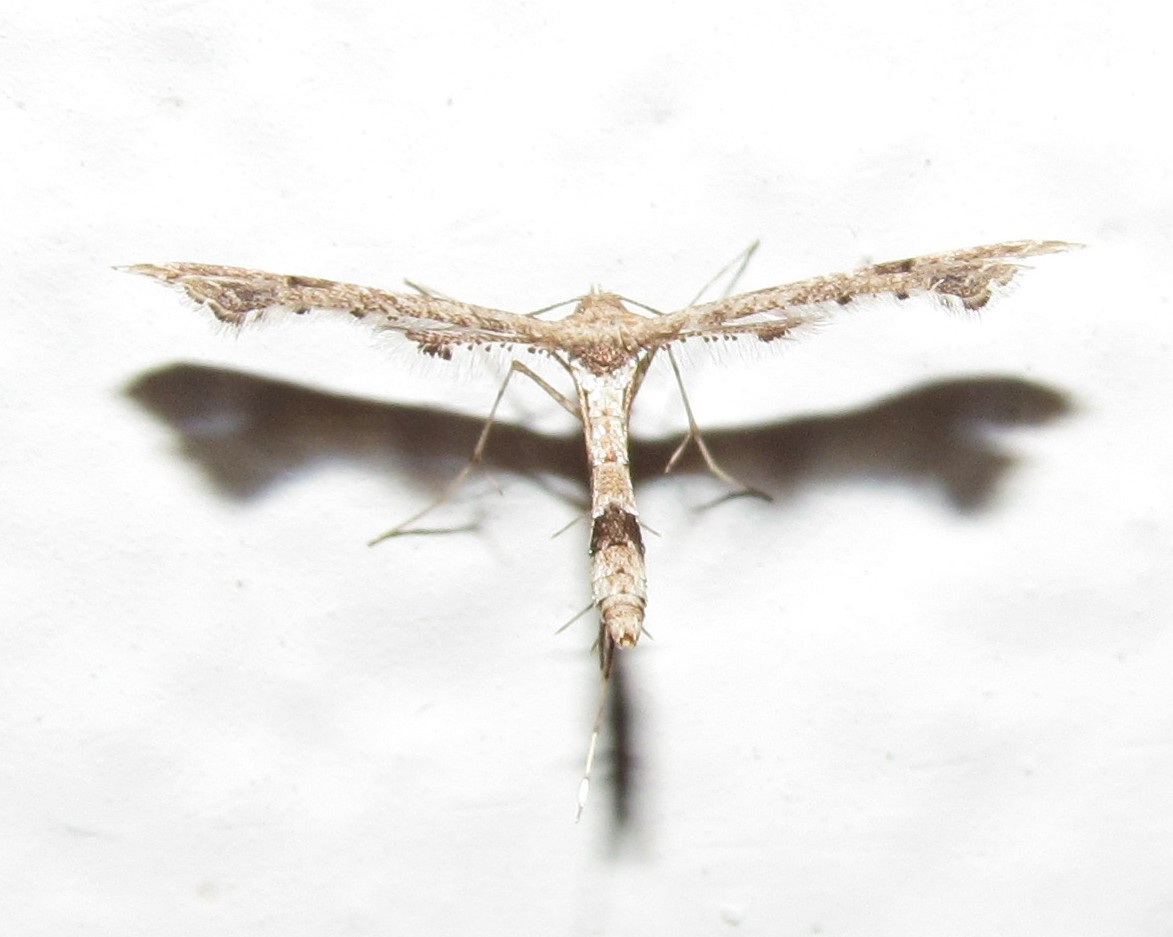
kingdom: Animalia
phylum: Arthropoda
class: Insecta
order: Lepidoptera
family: Pterophoridae
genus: Lantanophaga
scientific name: Lantanophaga pusillidactylus
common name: Moth
